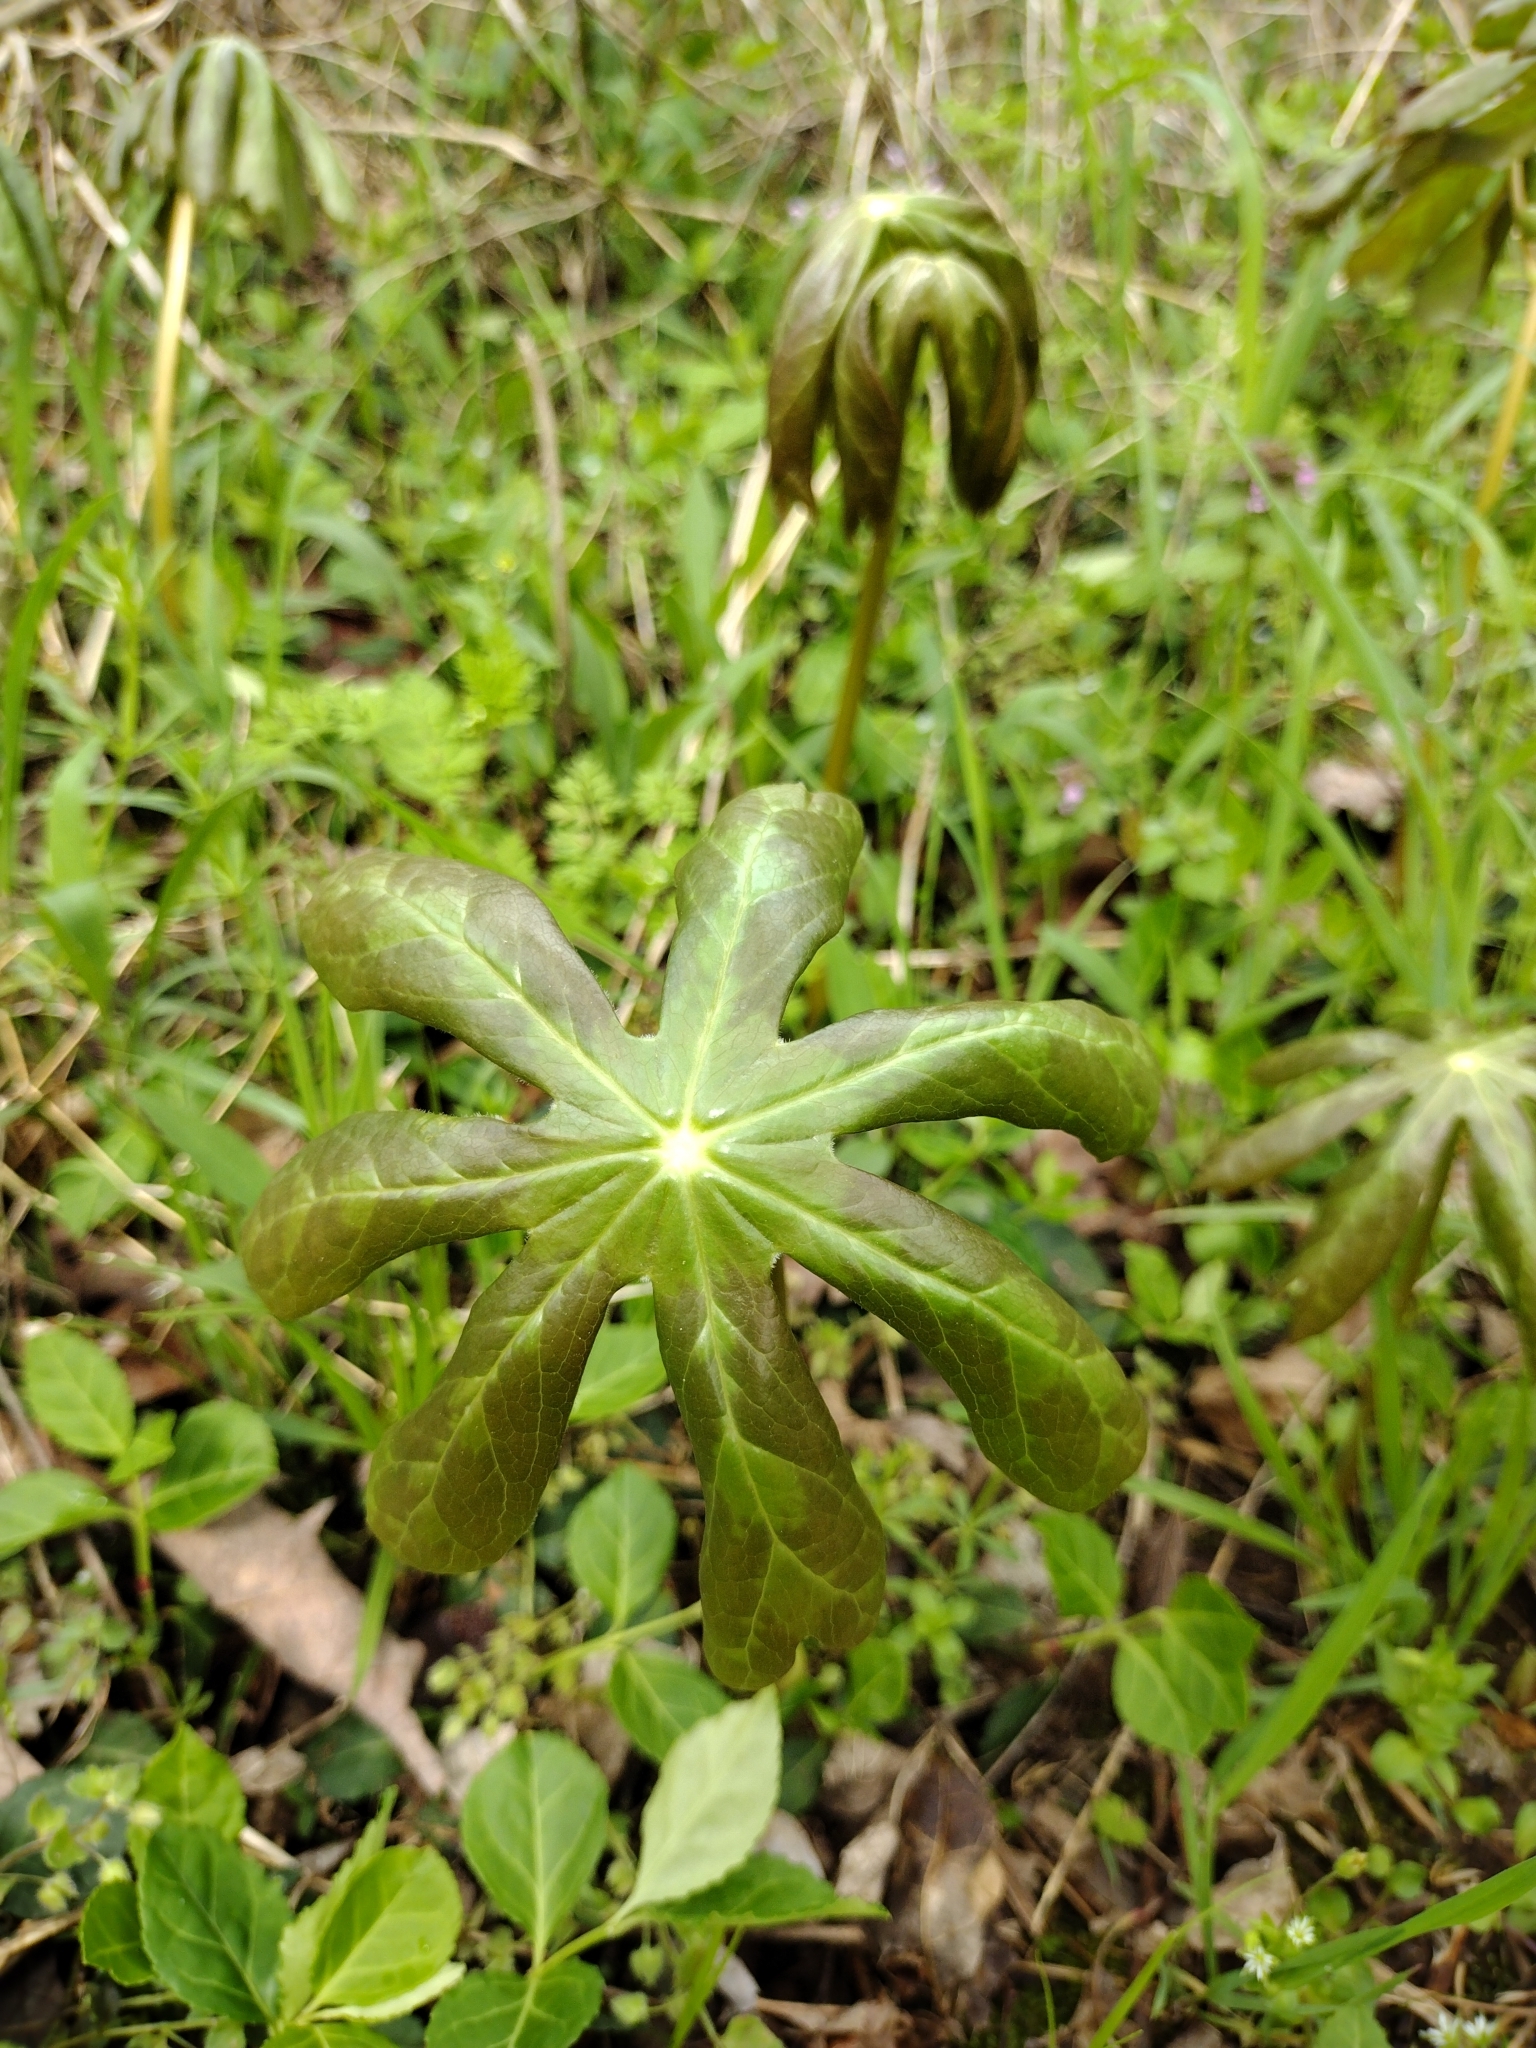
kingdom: Plantae
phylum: Tracheophyta
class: Magnoliopsida
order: Ranunculales
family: Berberidaceae
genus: Podophyllum
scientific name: Podophyllum peltatum
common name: Wild mandrake
